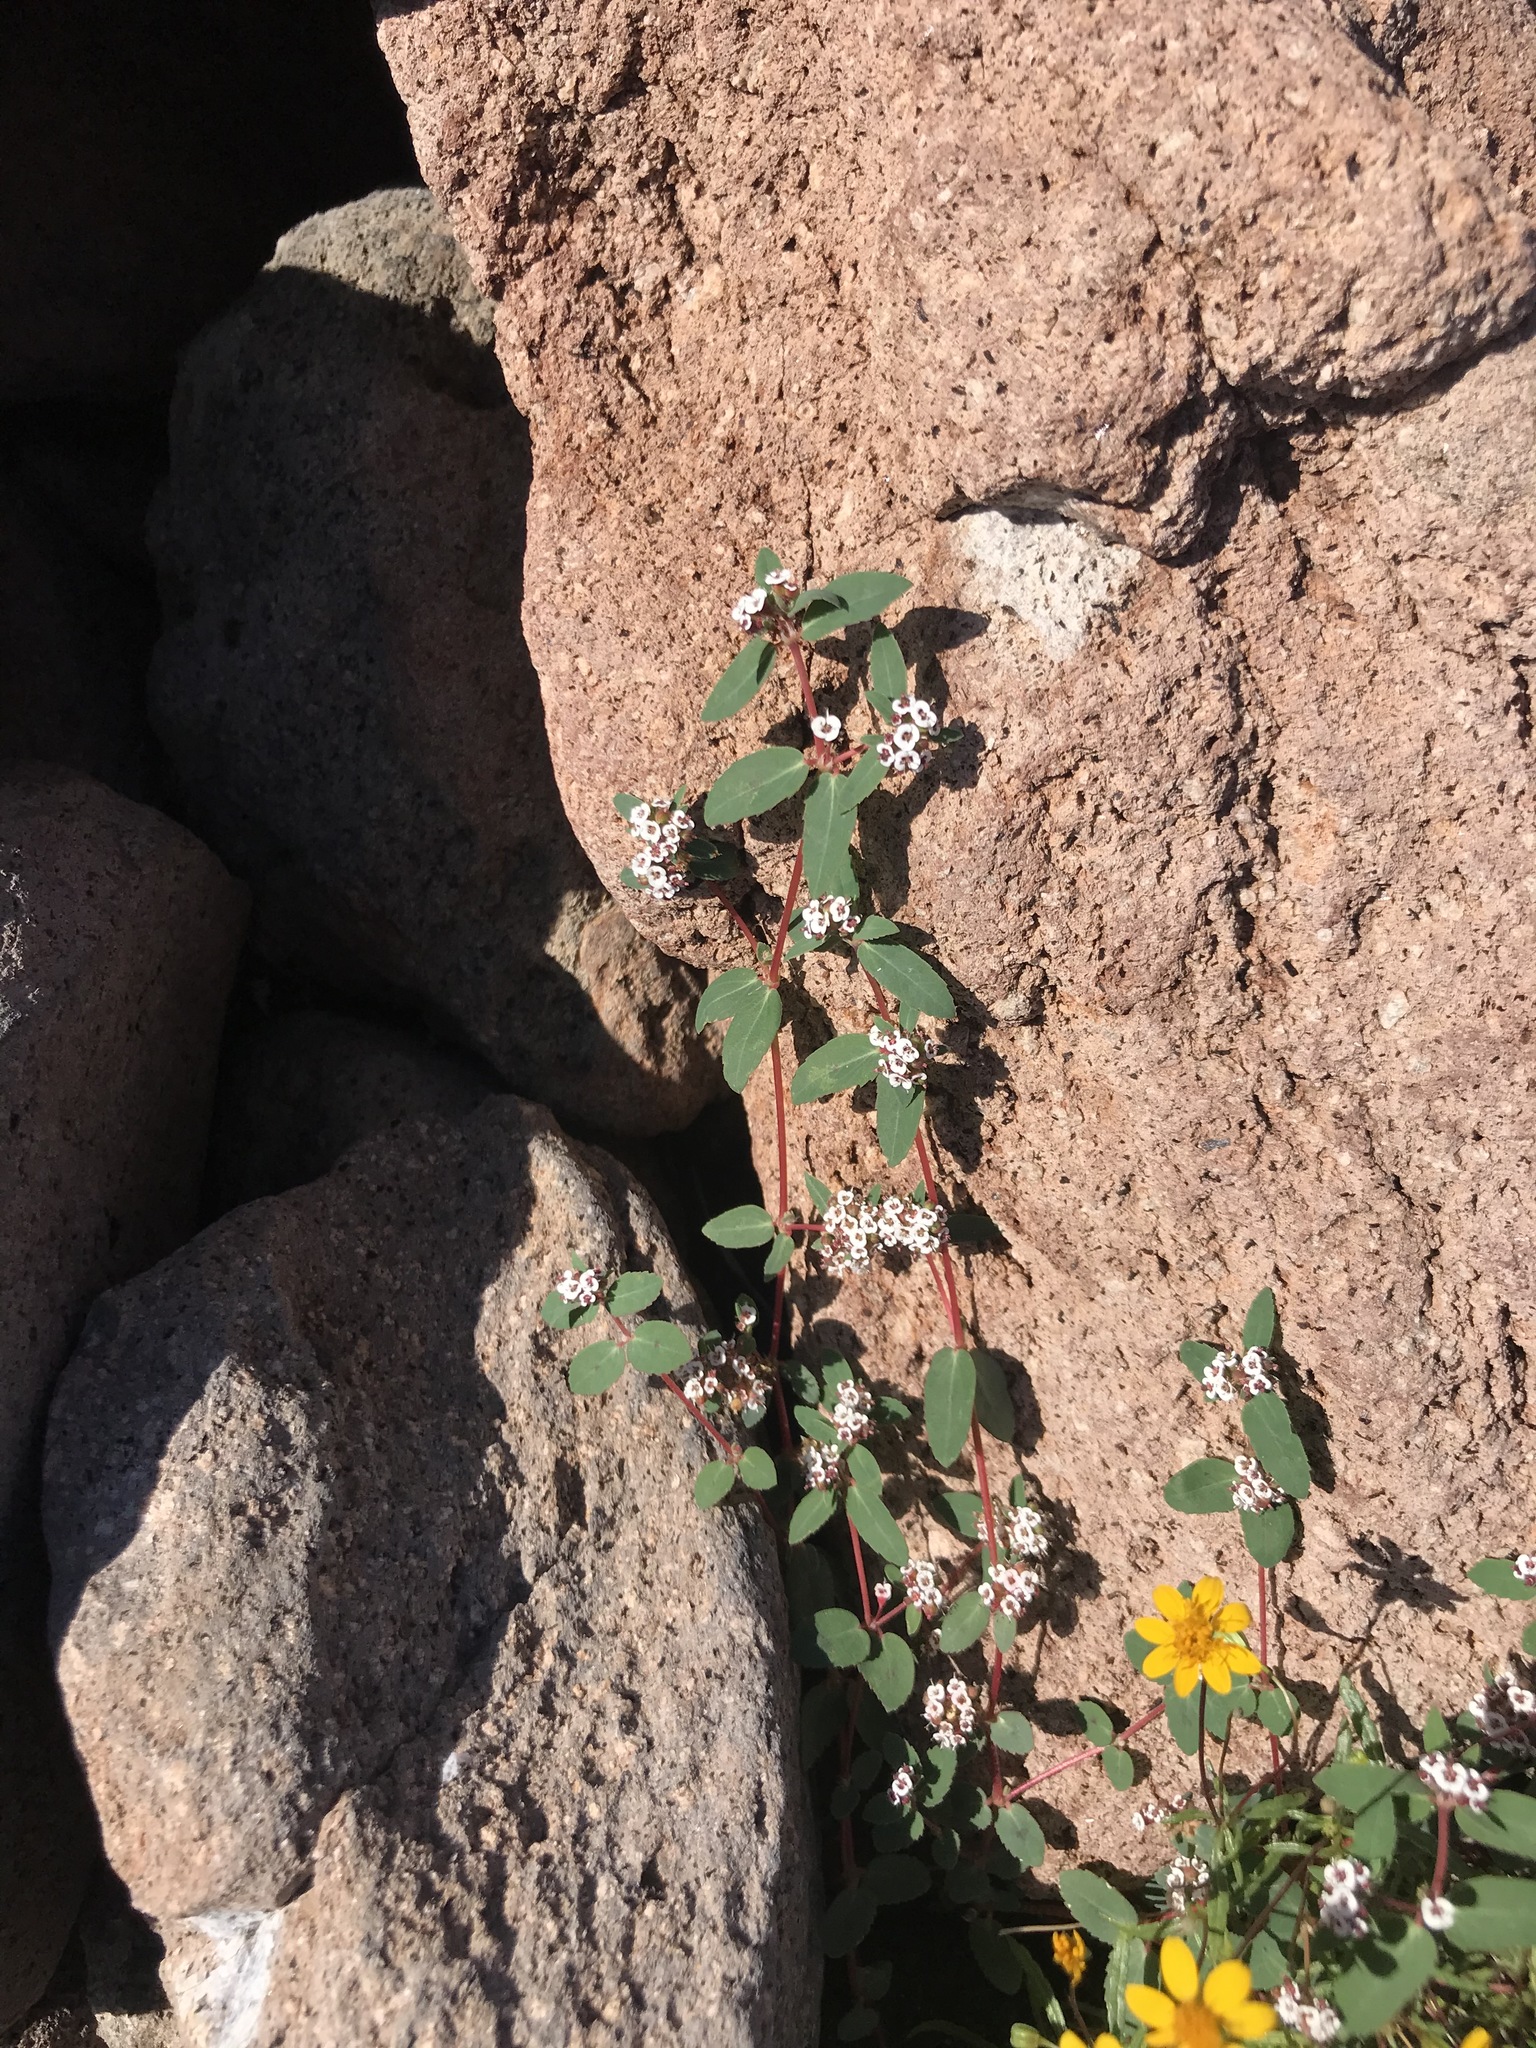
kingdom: Plantae
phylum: Tracheophyta
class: Magnoliopsida
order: Malpighiales
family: Euphorbiaceae
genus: Euphorbia
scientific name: Euphorbia capitellata
